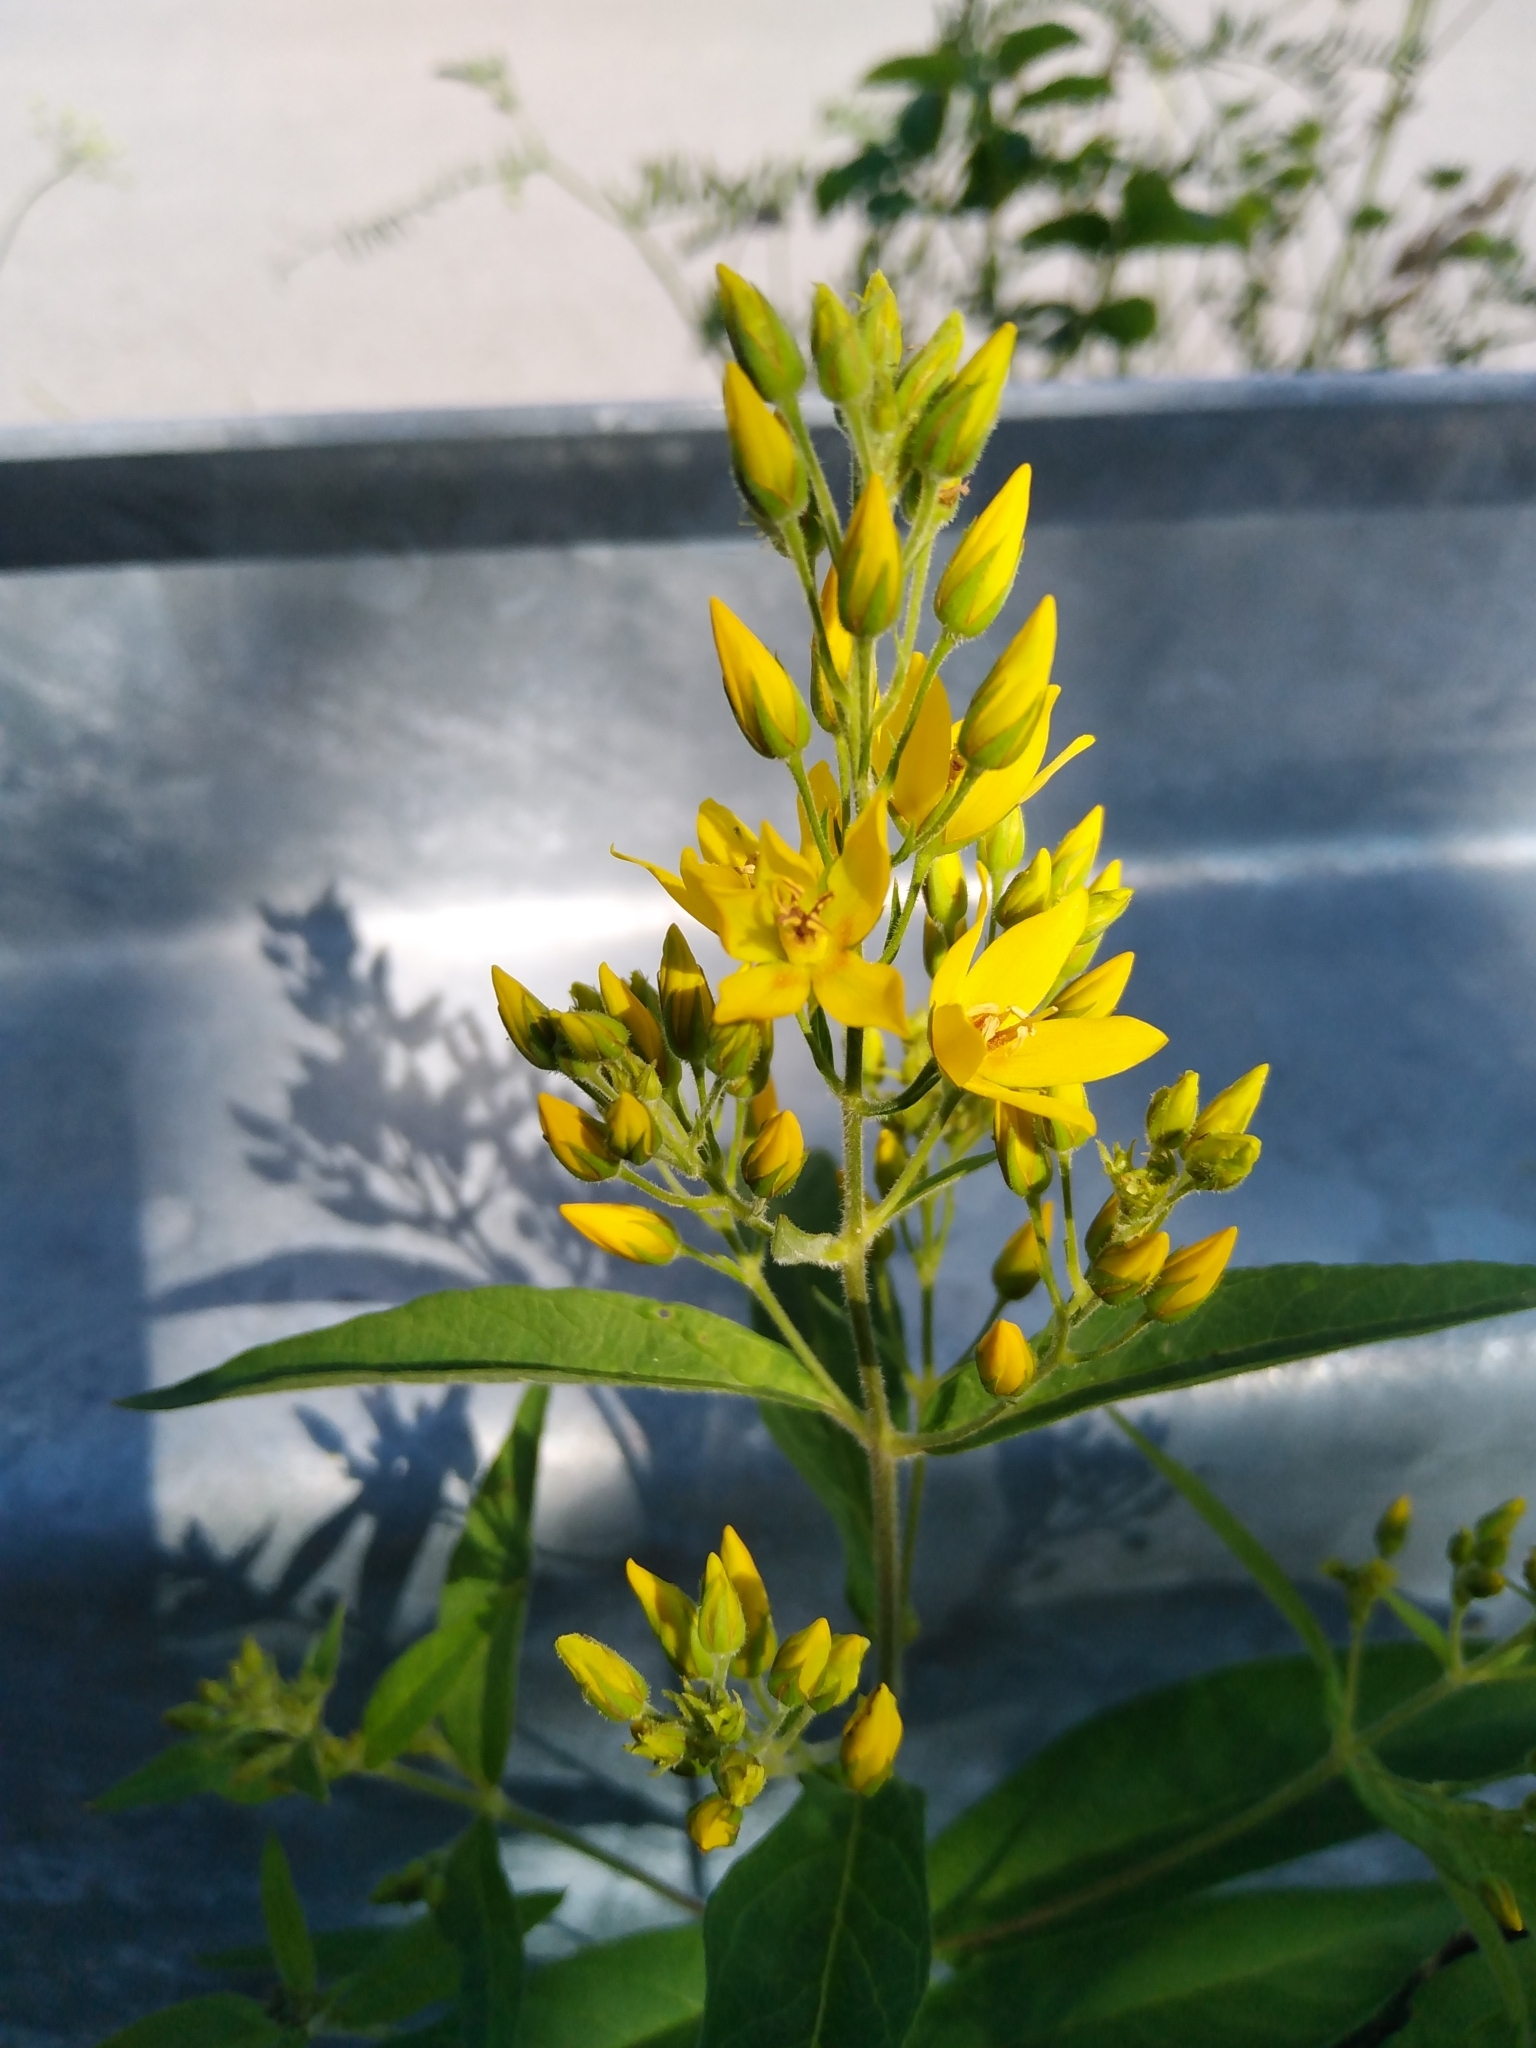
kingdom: Plantae
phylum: Tracheophyta
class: Magnoliopsida
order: Ericales
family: Primulaceae
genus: Lysimachia
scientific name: Lysimachia vulgaris
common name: Yellow loosestrife
